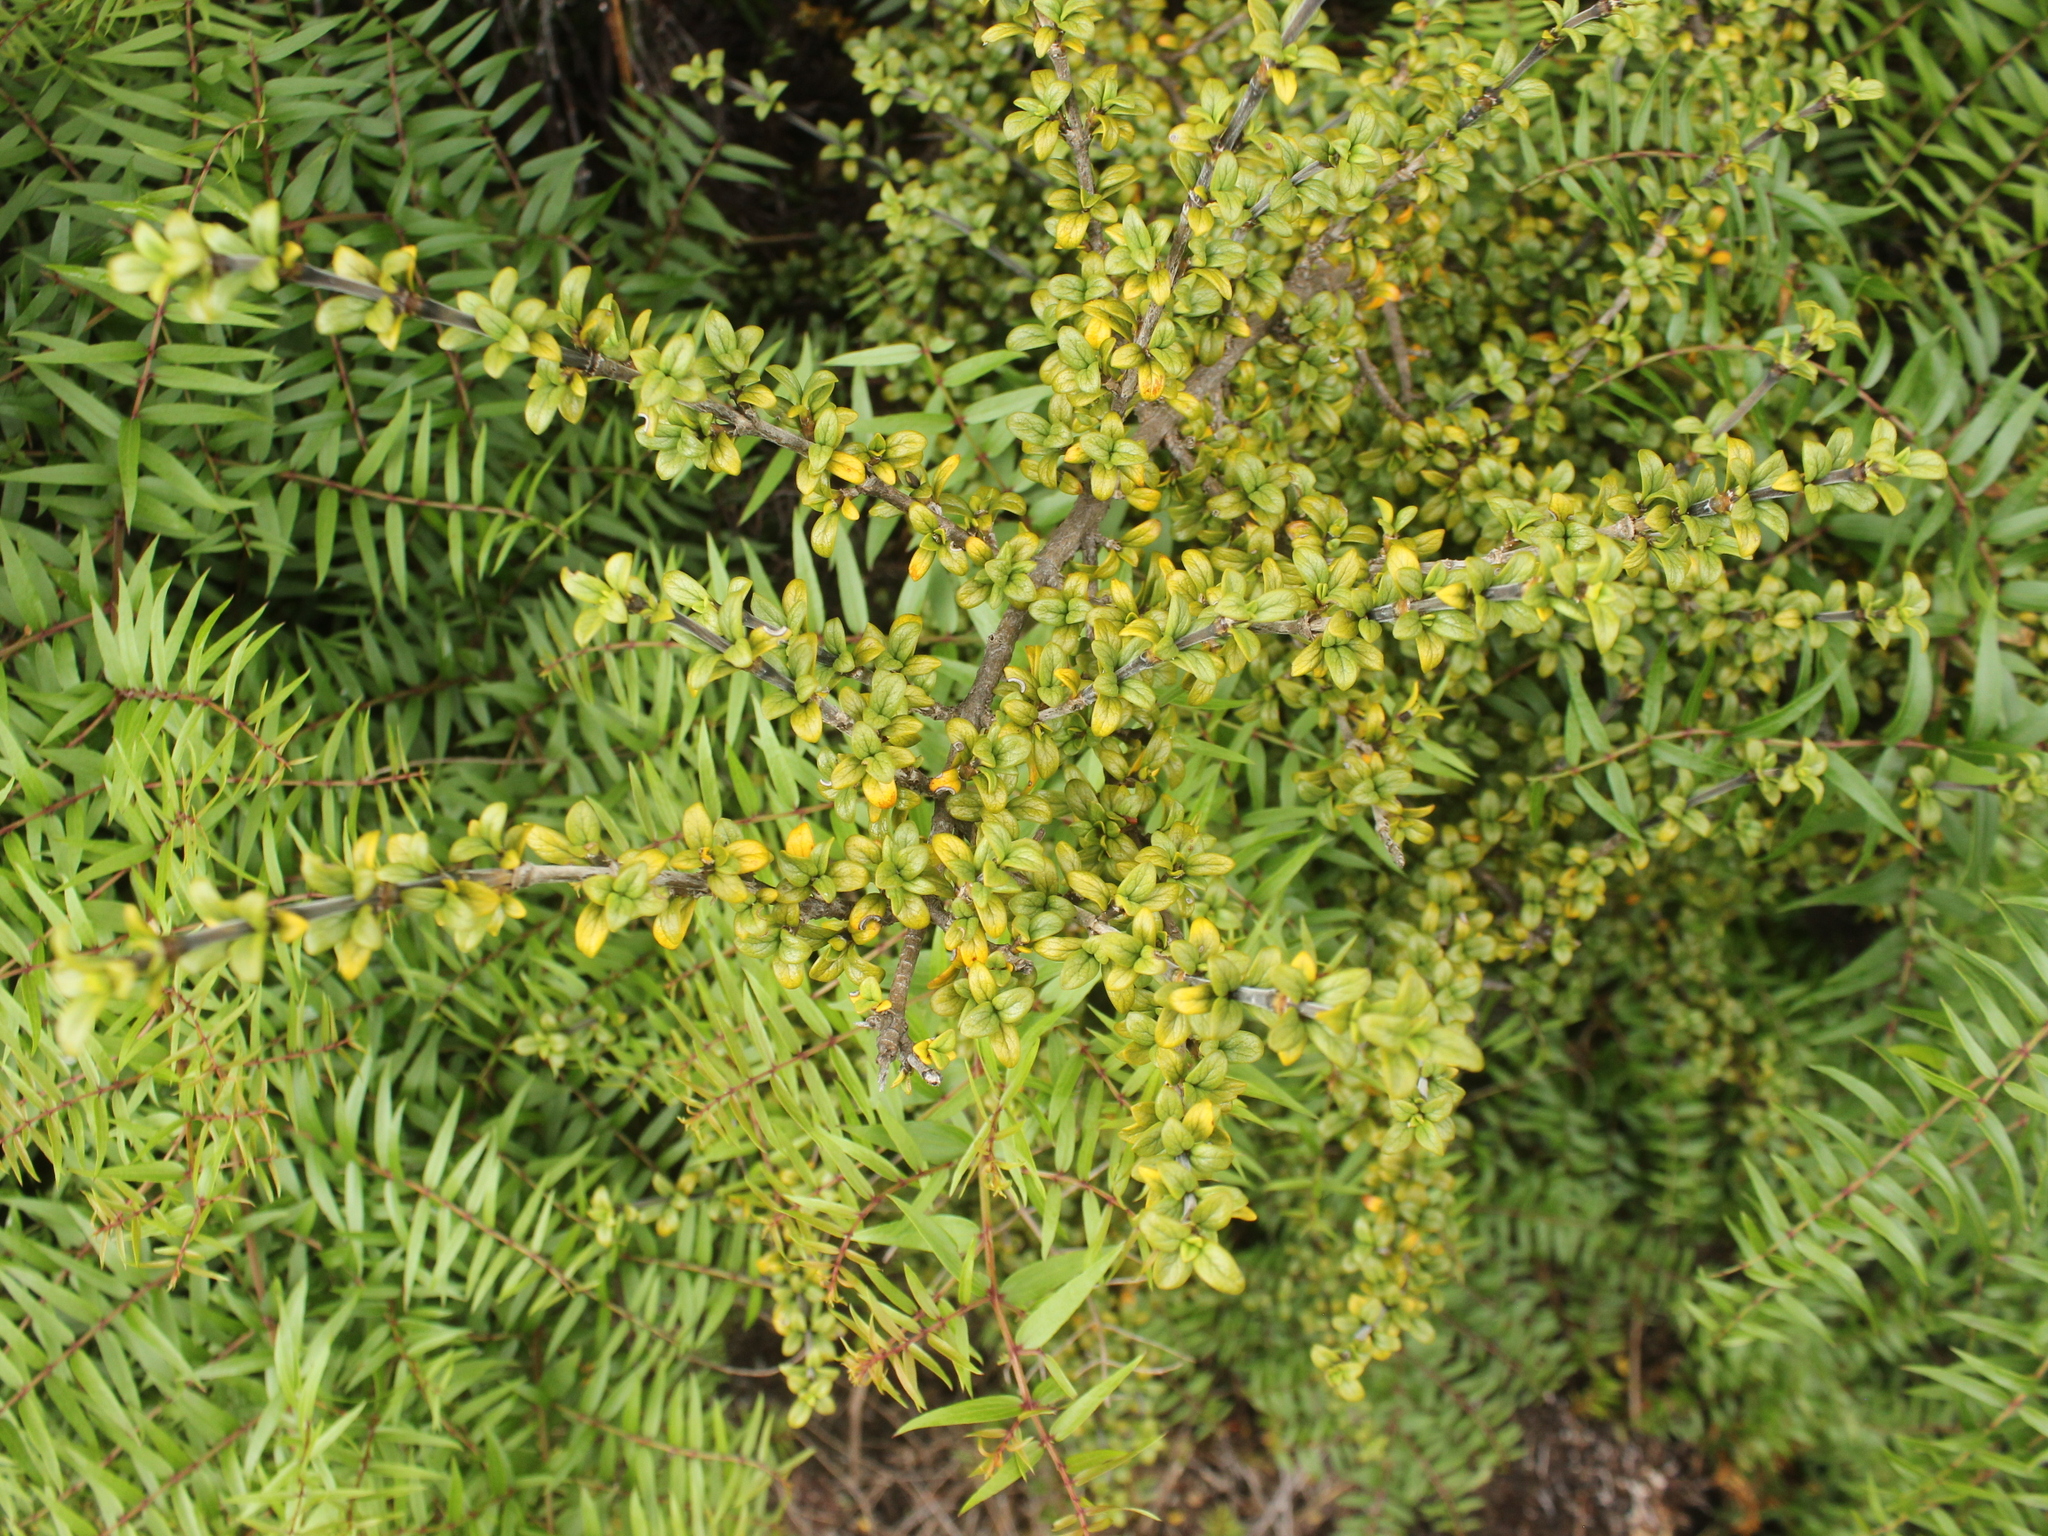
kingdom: Plantae
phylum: Tracheophyta
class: Magnoliopsida
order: Gentianales
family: Rubiaceae
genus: Coprosma
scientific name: Coprosma pseudocuneata
